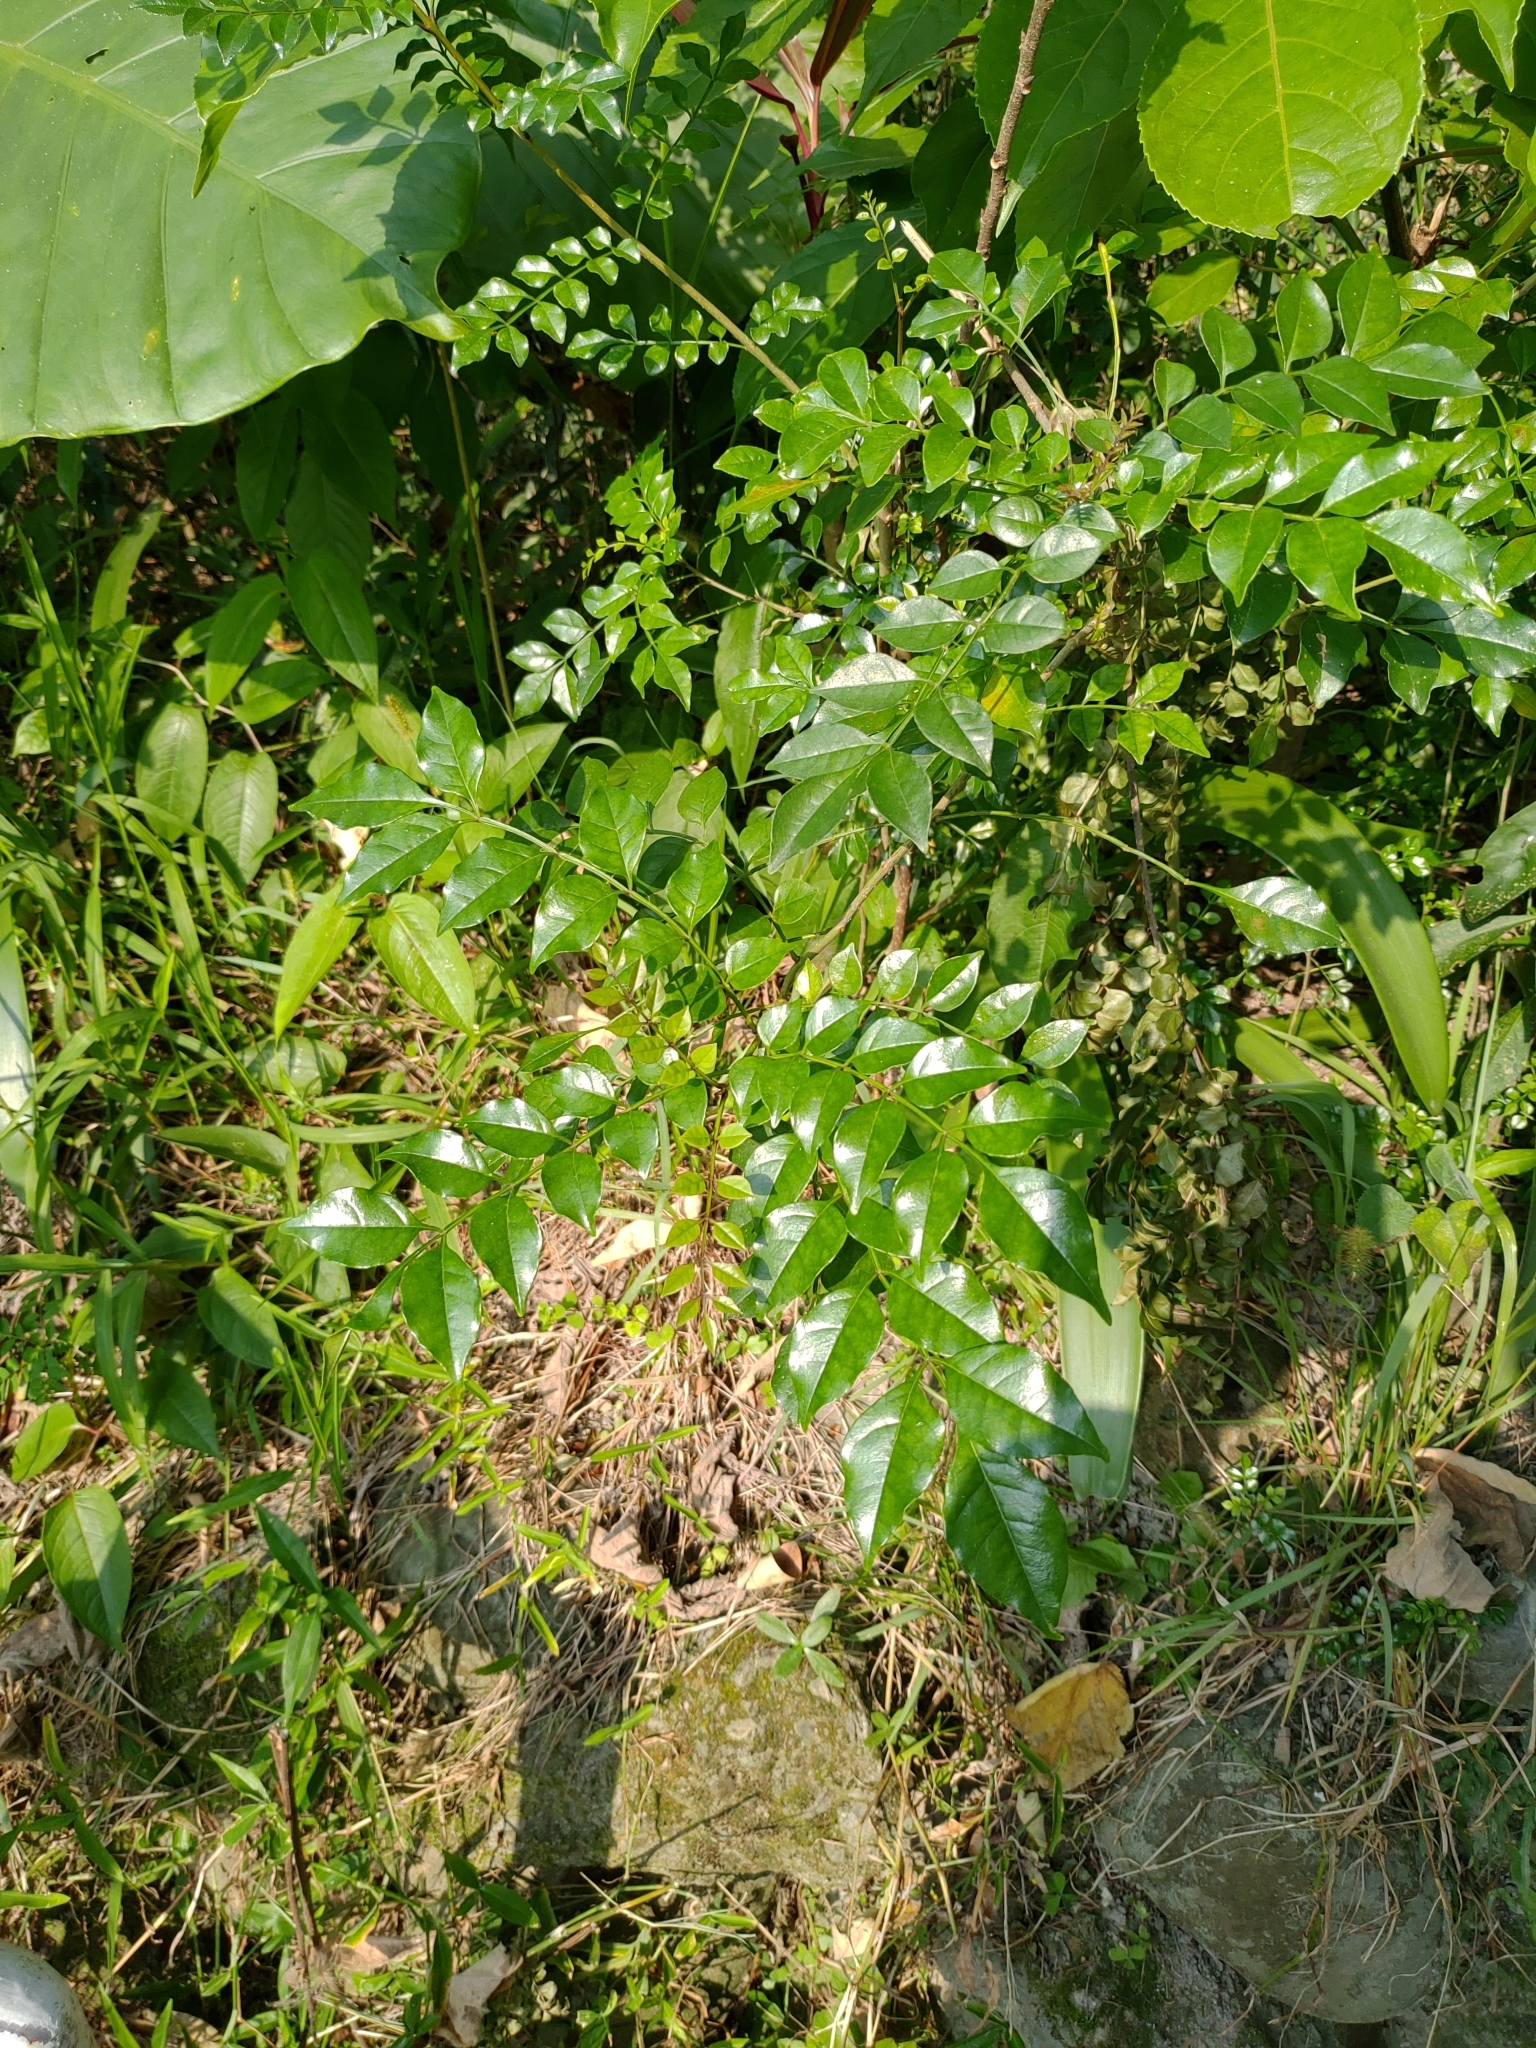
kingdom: Plantae
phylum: Tracheophyta
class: Magnoliopsida
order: Lamiales
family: Oleaceae
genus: Fraxinus
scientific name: Fraxinus griffithii
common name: Himalayan ash
